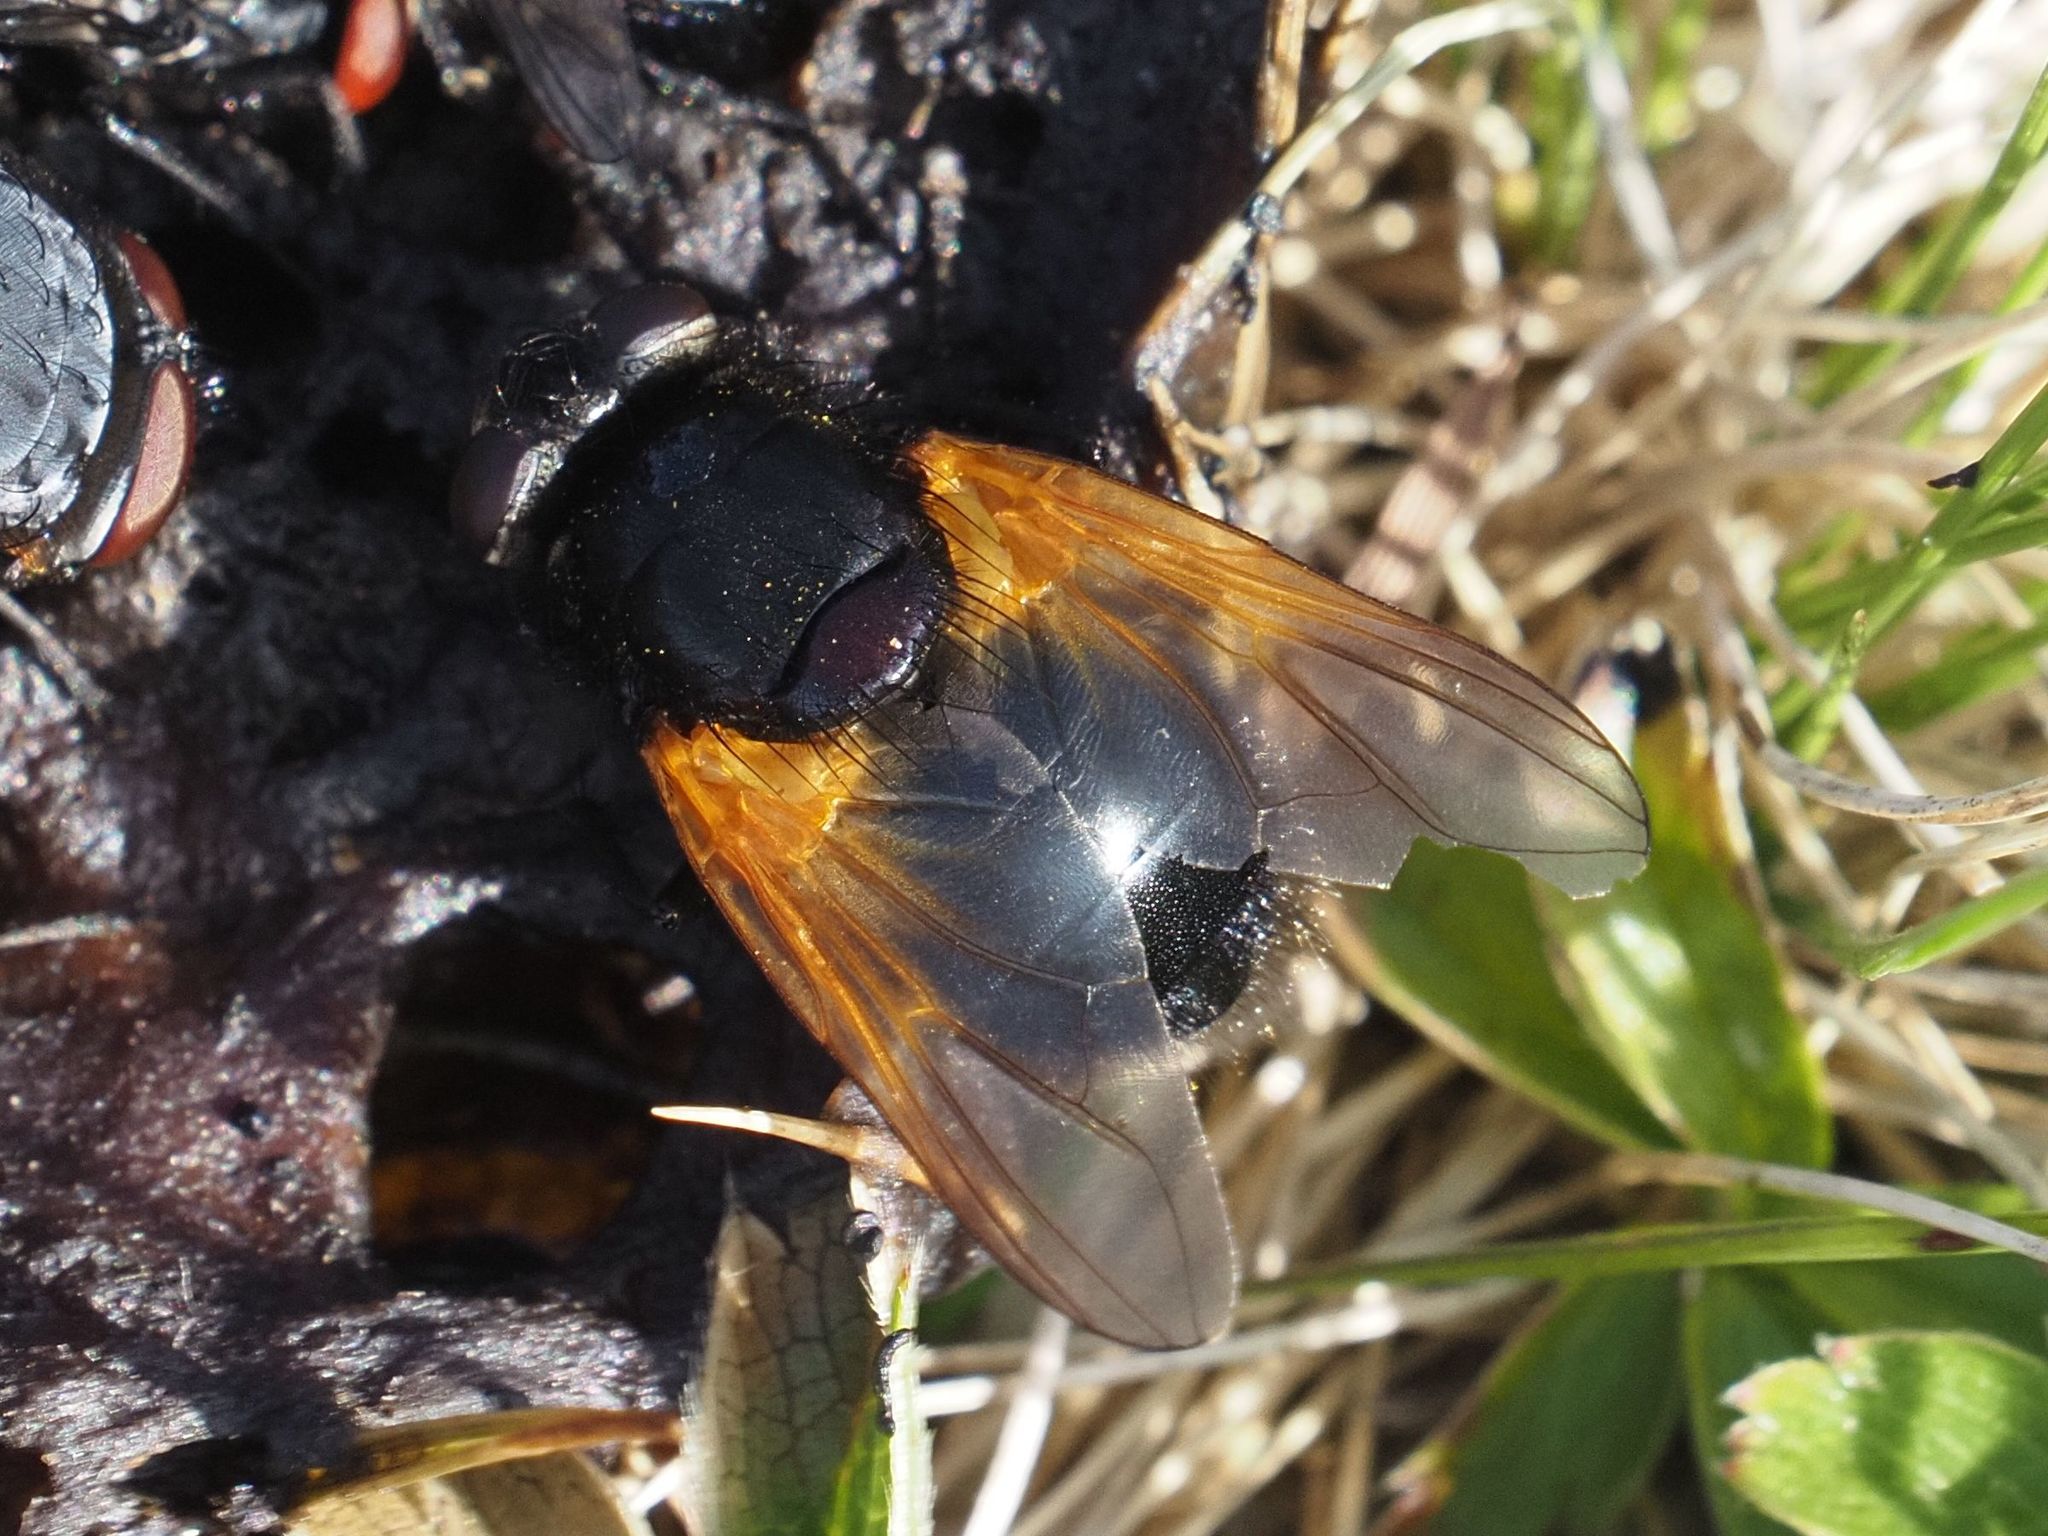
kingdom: Animalia
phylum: Arthropoda
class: Insecta
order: Diptera
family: Muscidae
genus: Mesembrina
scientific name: Mesembrina meridiana
